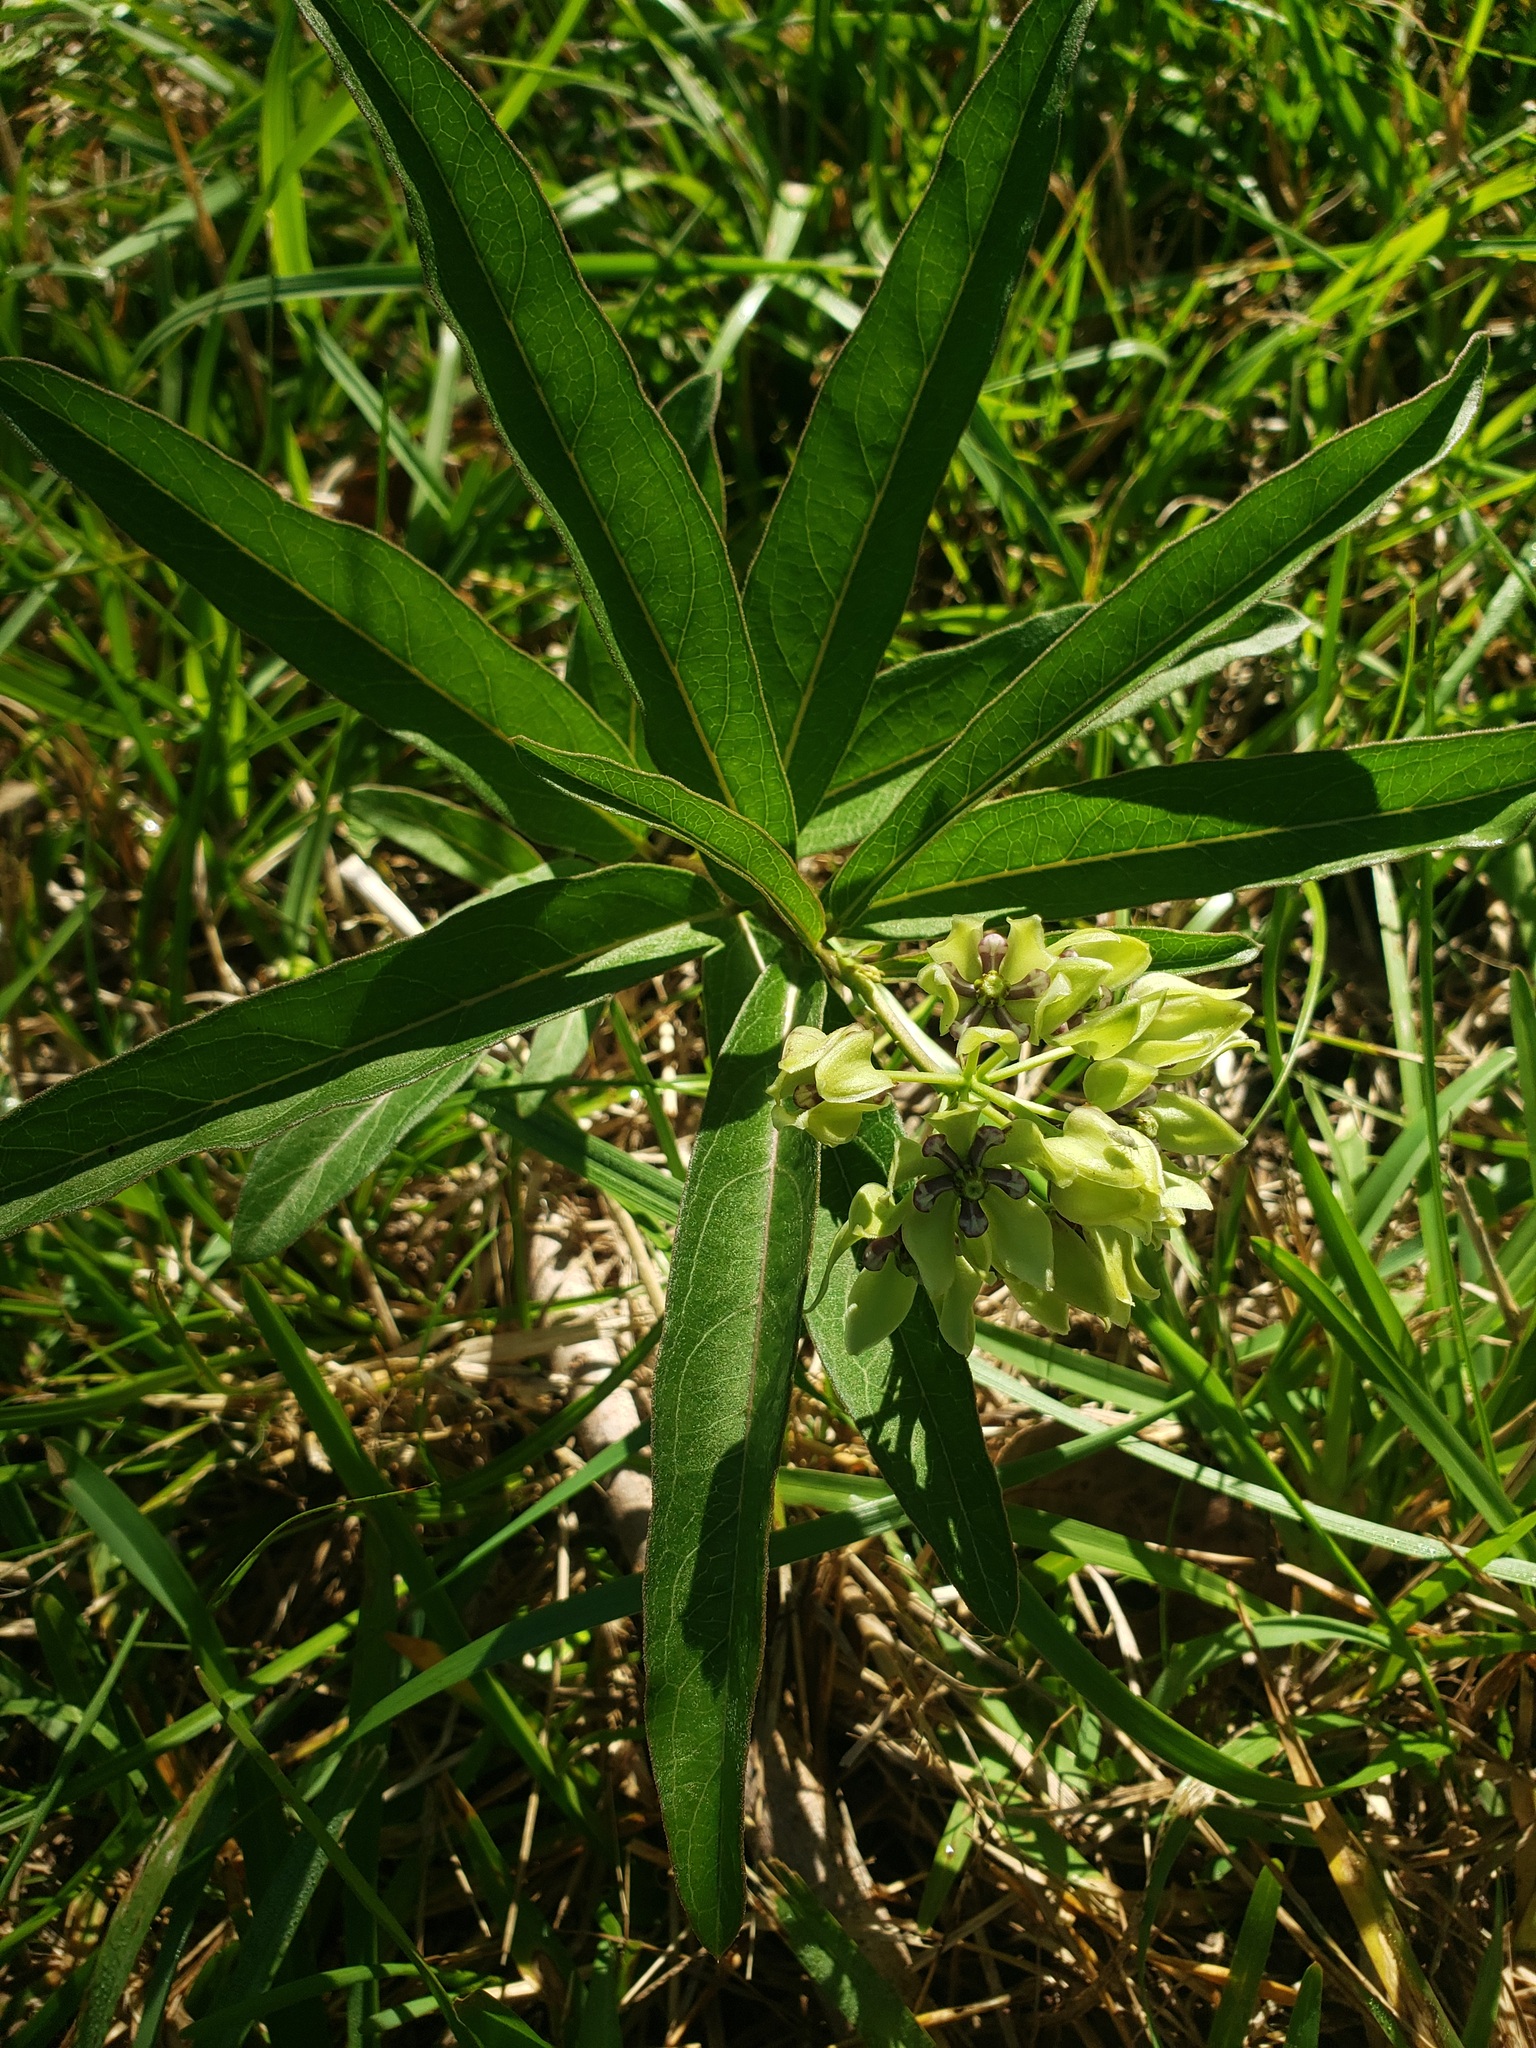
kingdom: Plantae
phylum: Tracheophyta
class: Magnoliopsida
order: Gentianales
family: Apocynaceae
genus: Asclepias
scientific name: Asclepias viridis
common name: Antelope-horns
